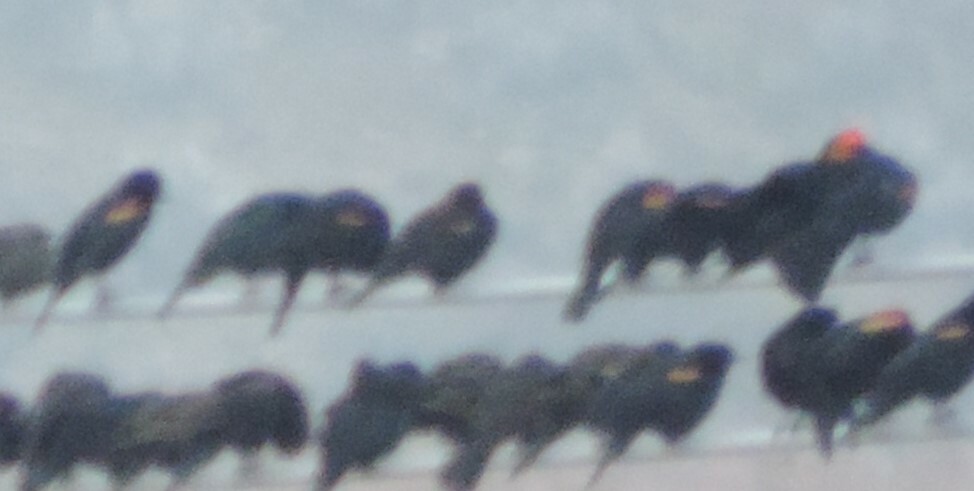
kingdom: Animalia
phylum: Chordata
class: Aves
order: Passeriformes
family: Icteridae
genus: Agelaius
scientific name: Agelaius phoeniceus
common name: Red-winged blackbird
